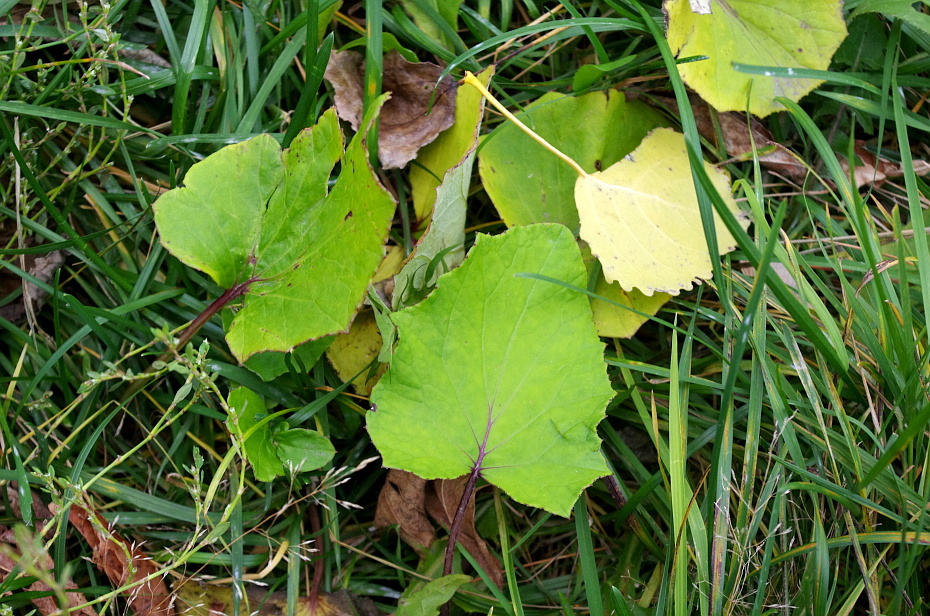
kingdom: Plantae
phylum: Tracheophyta
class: Magnoliopsida
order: Asterales
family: Asteraceae
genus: Tussilago
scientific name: Tussilago farfara
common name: Coltsfoot
